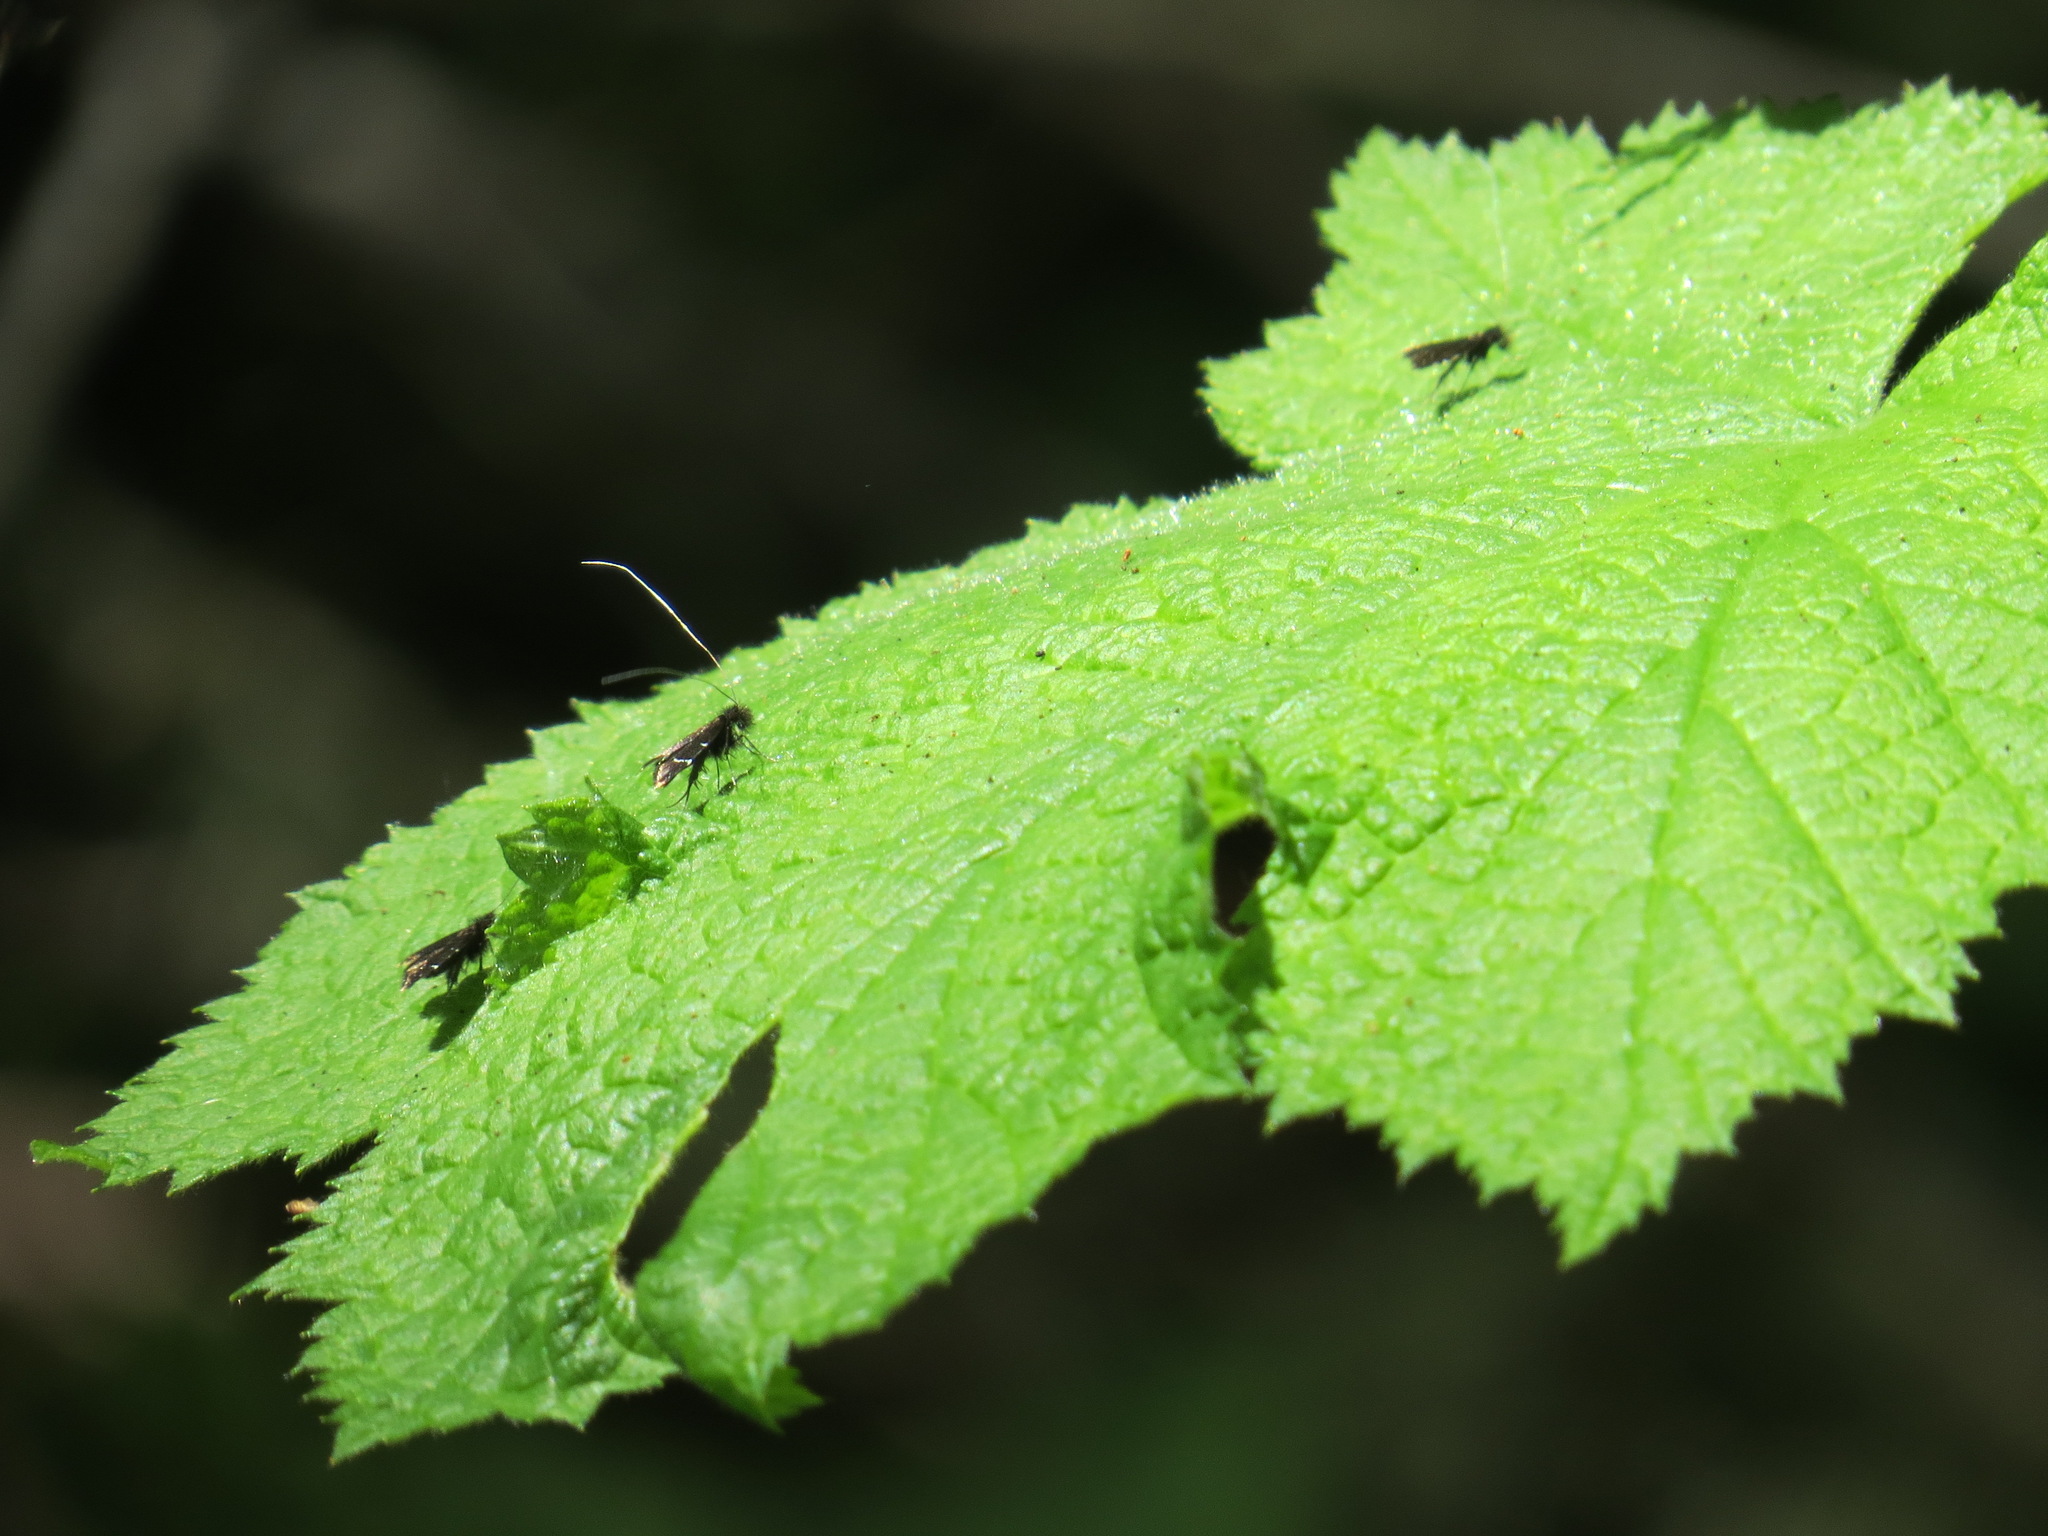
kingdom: Animalia
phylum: Arthropoda
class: Insecta
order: Lepidoptera
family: Adelidae
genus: Adela
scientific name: Adela septentrionella
